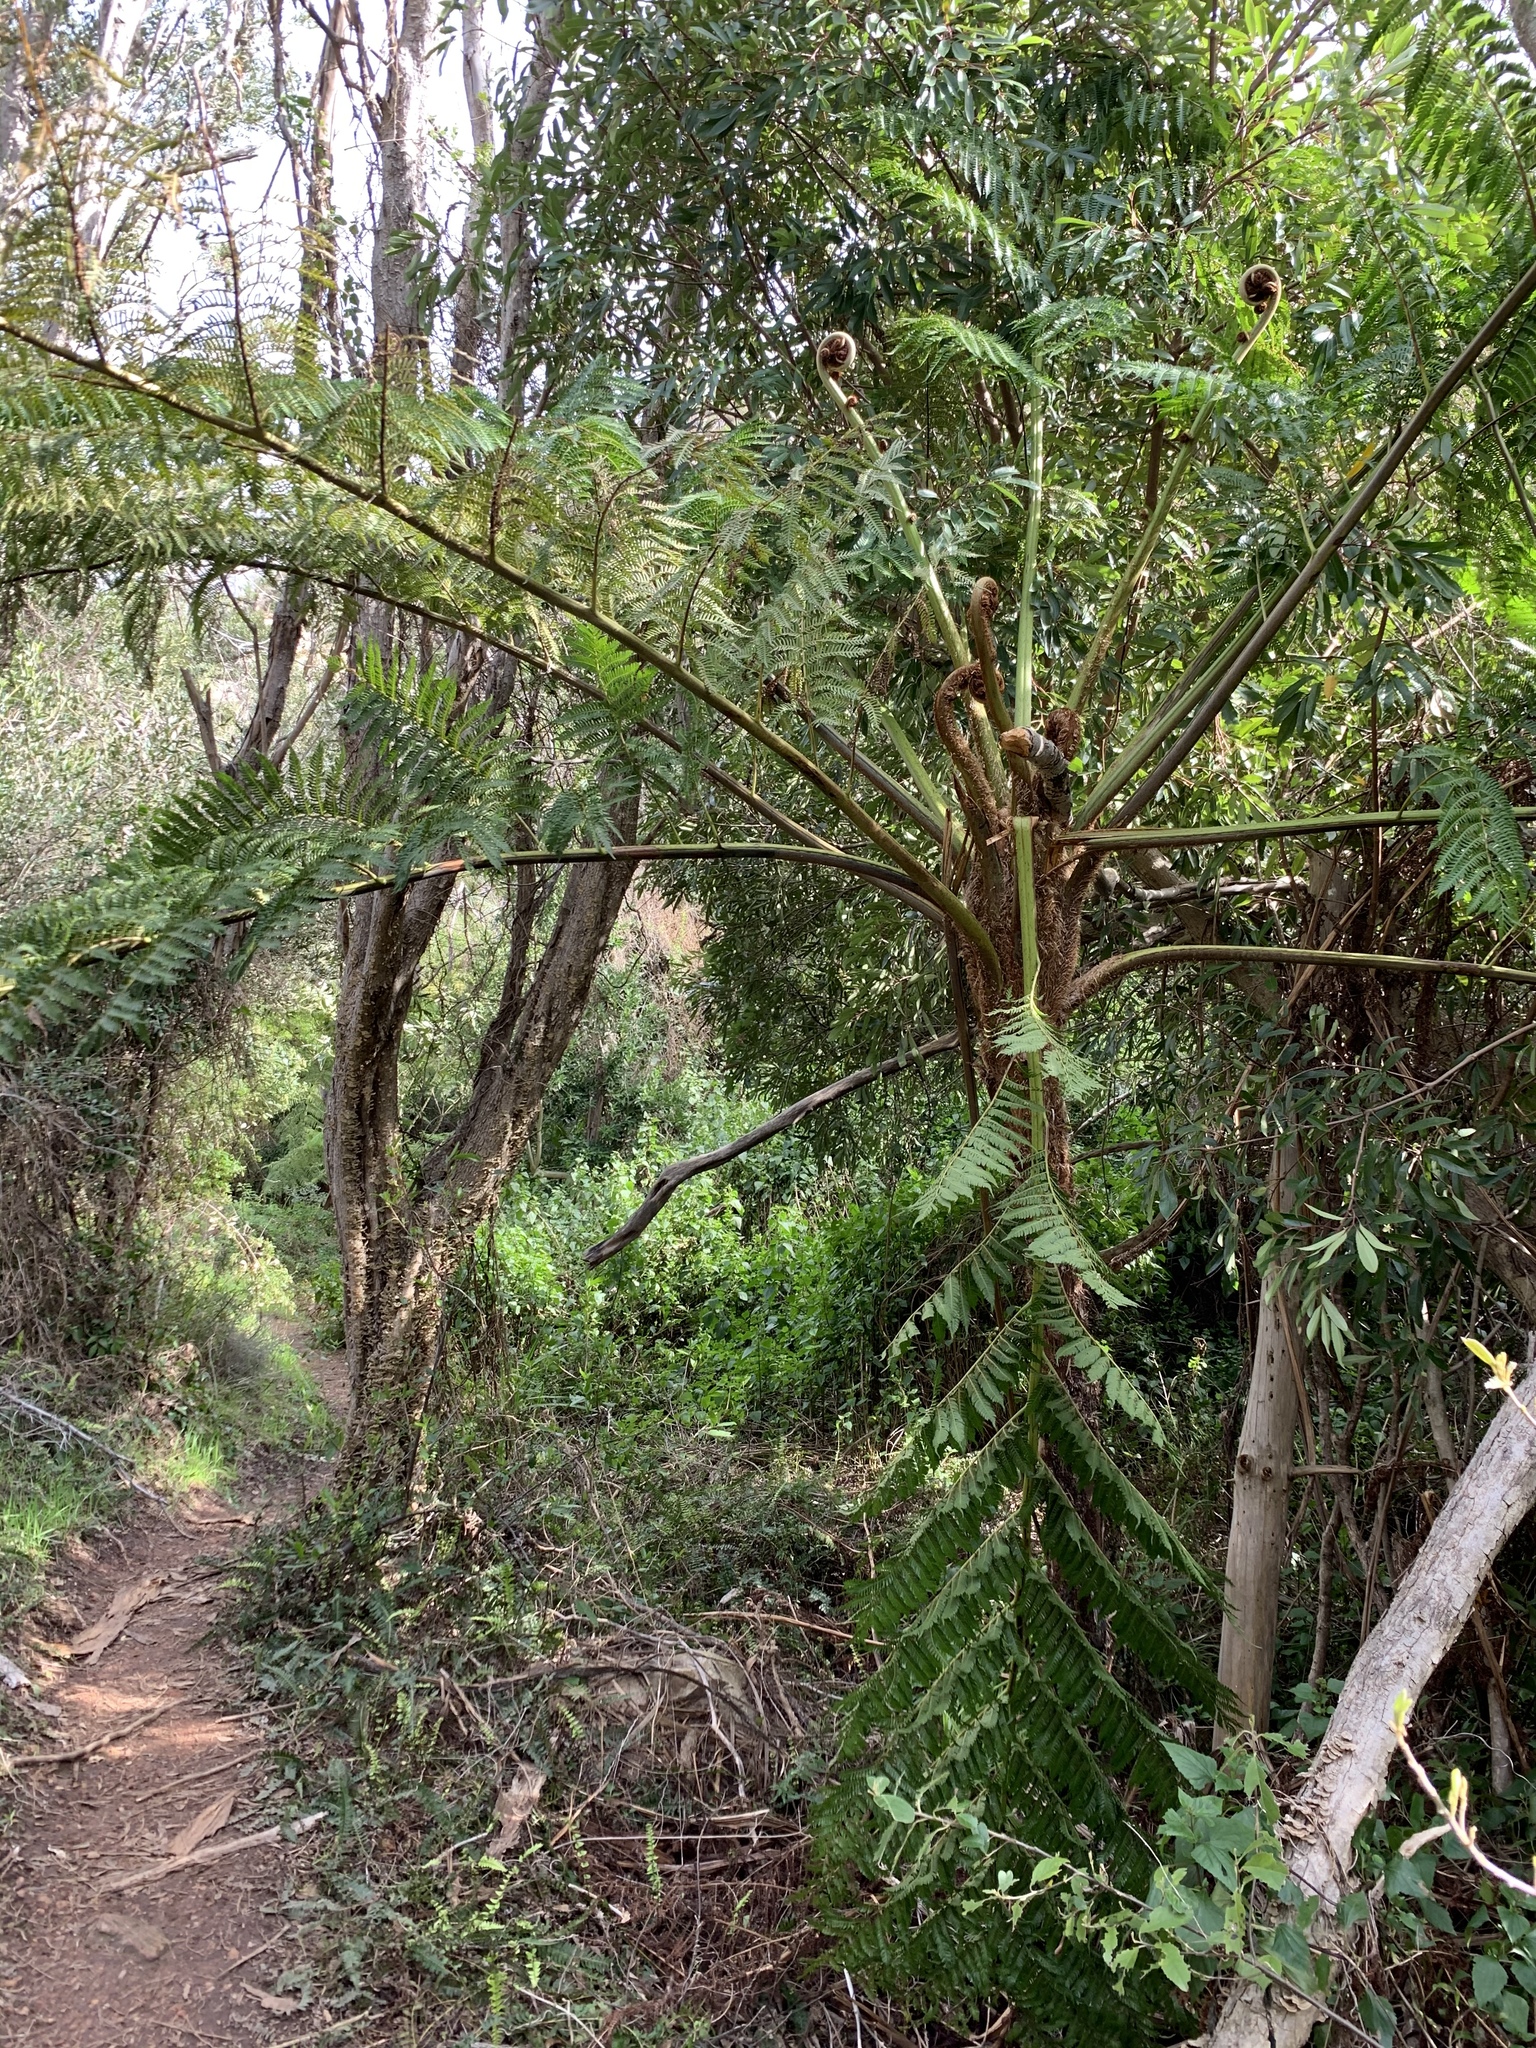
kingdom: Plantae
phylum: Tracheophyta
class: Polypodiopsida
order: Cyatheales
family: Cyatheaceae
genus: Sphaeropteris
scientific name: Sphaeropteris cooperi
